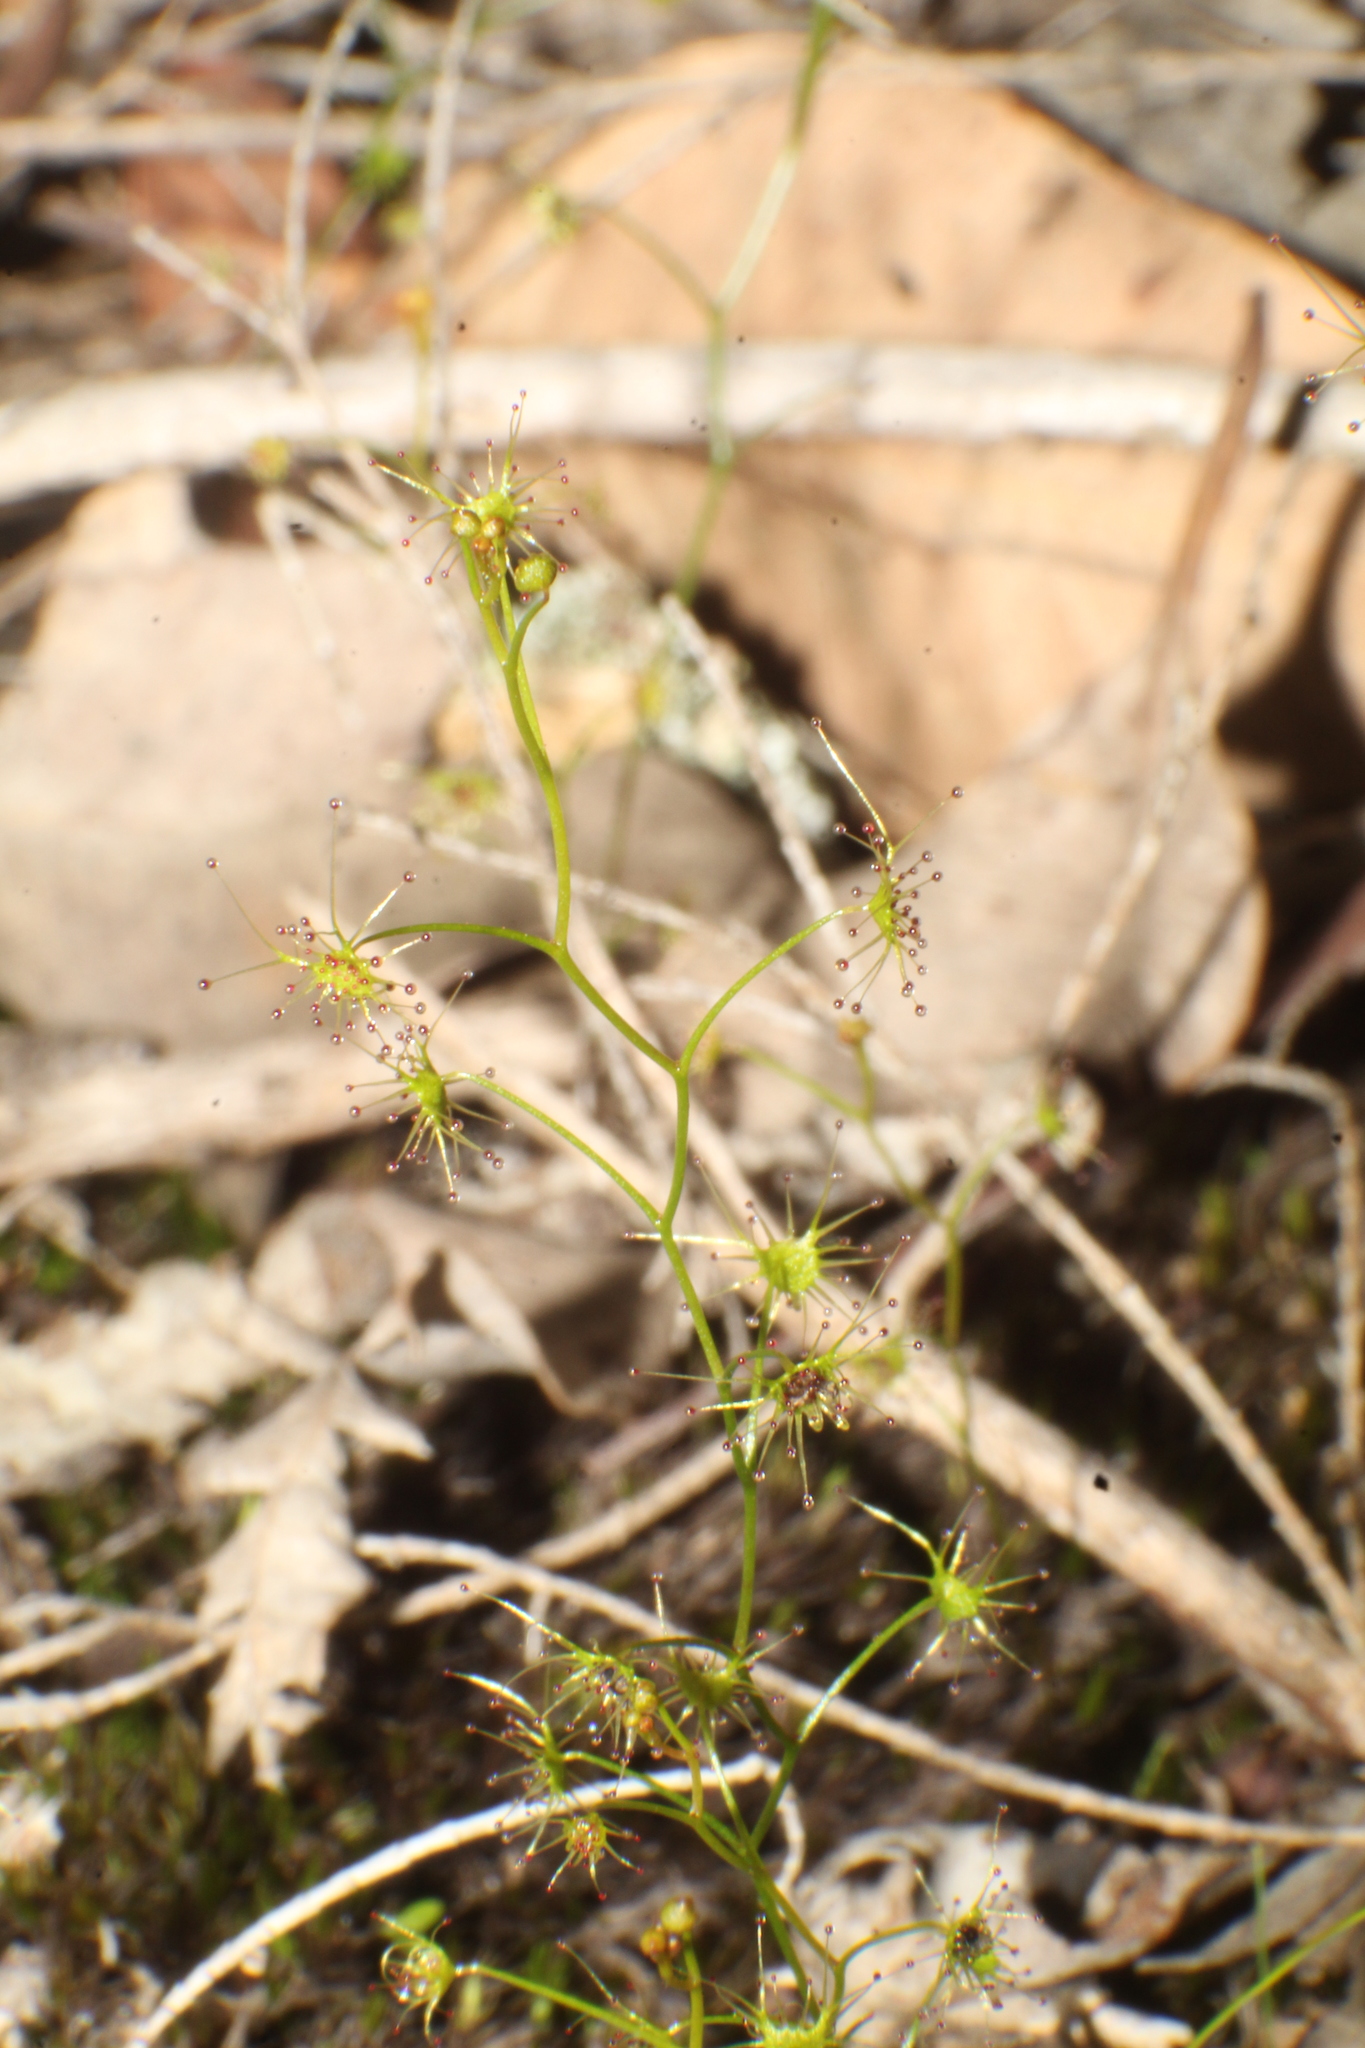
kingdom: Plantae
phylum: Tracheophyta
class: Magnoliopsida
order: Caryophyllales
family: Droseraceae
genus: Drosera
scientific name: Drosera modesta
